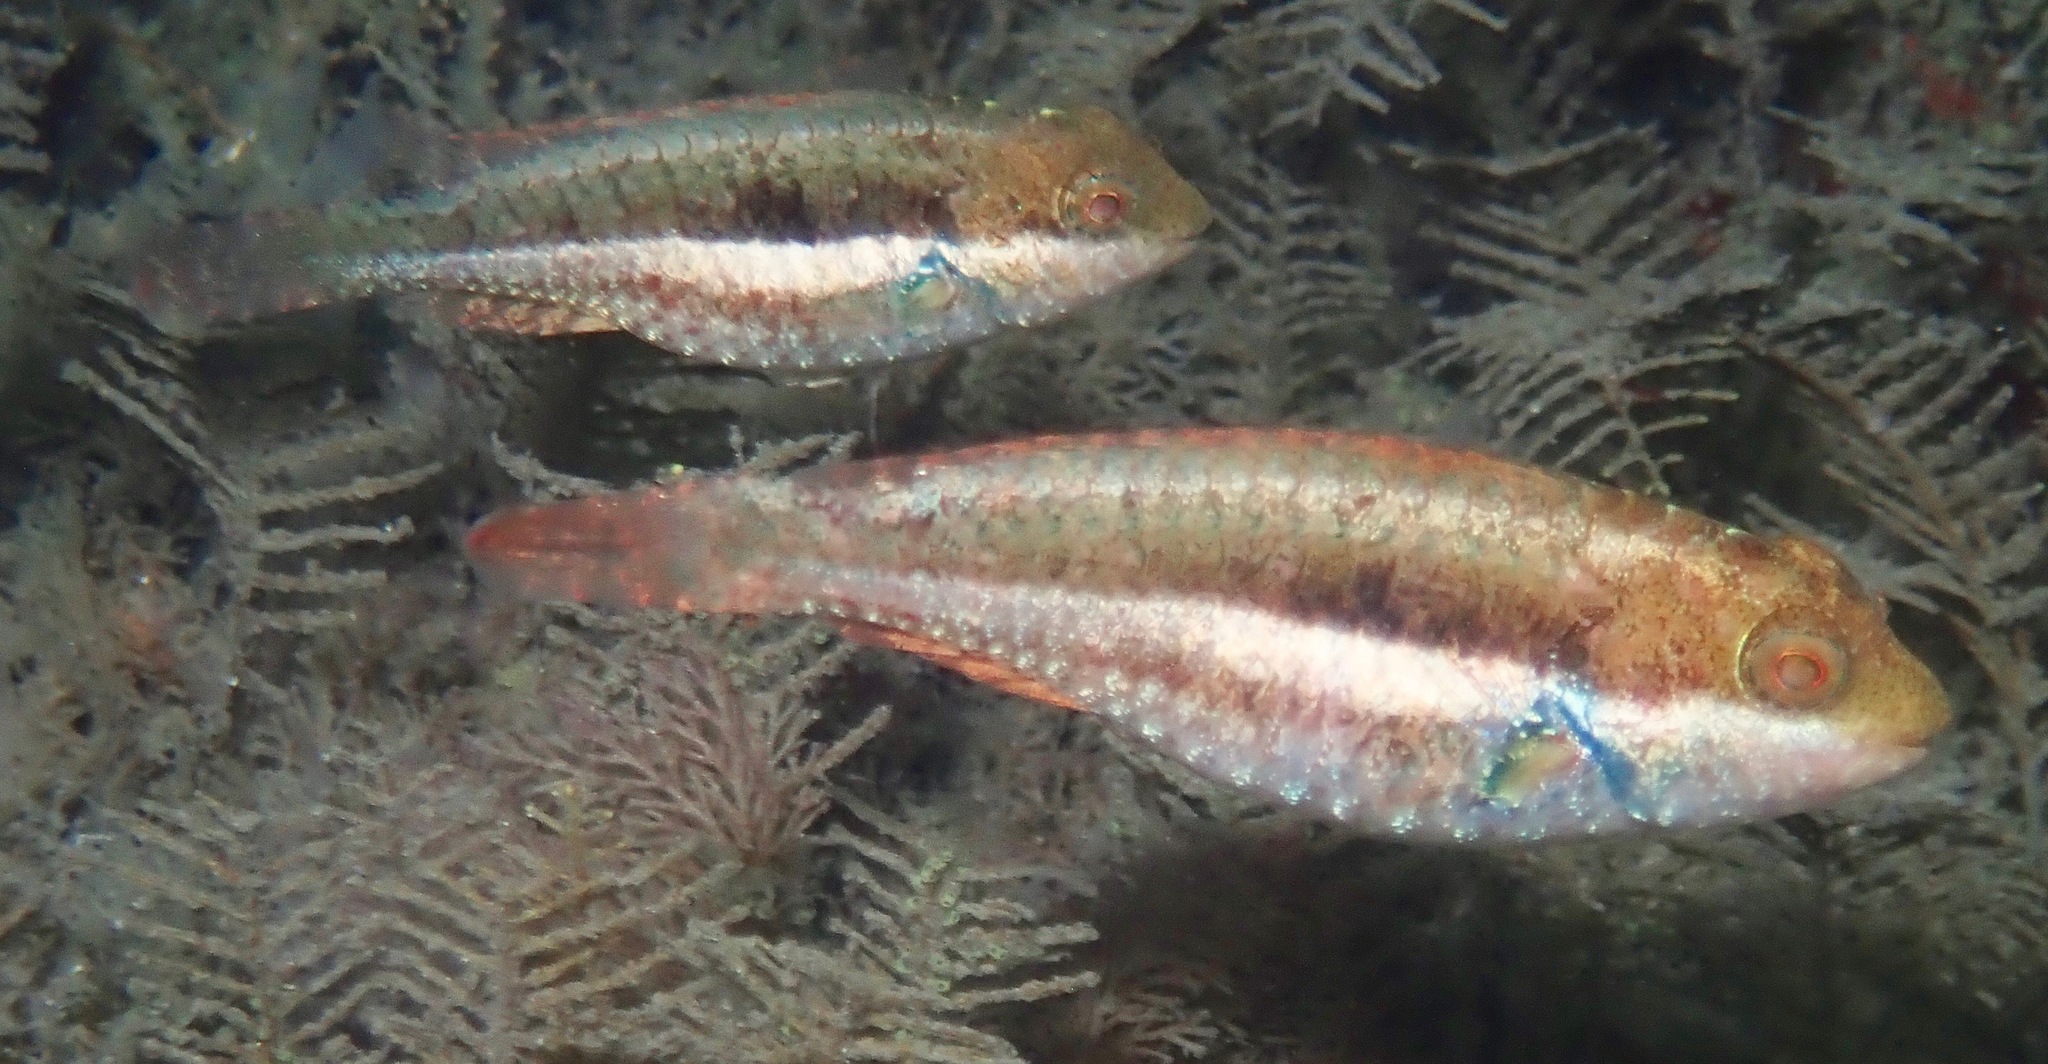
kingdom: Animalia
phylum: Chordata
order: Perciformes
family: Scaridae
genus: Sparisoma
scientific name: Sparisoma radians
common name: Bucktooth parrotfish
